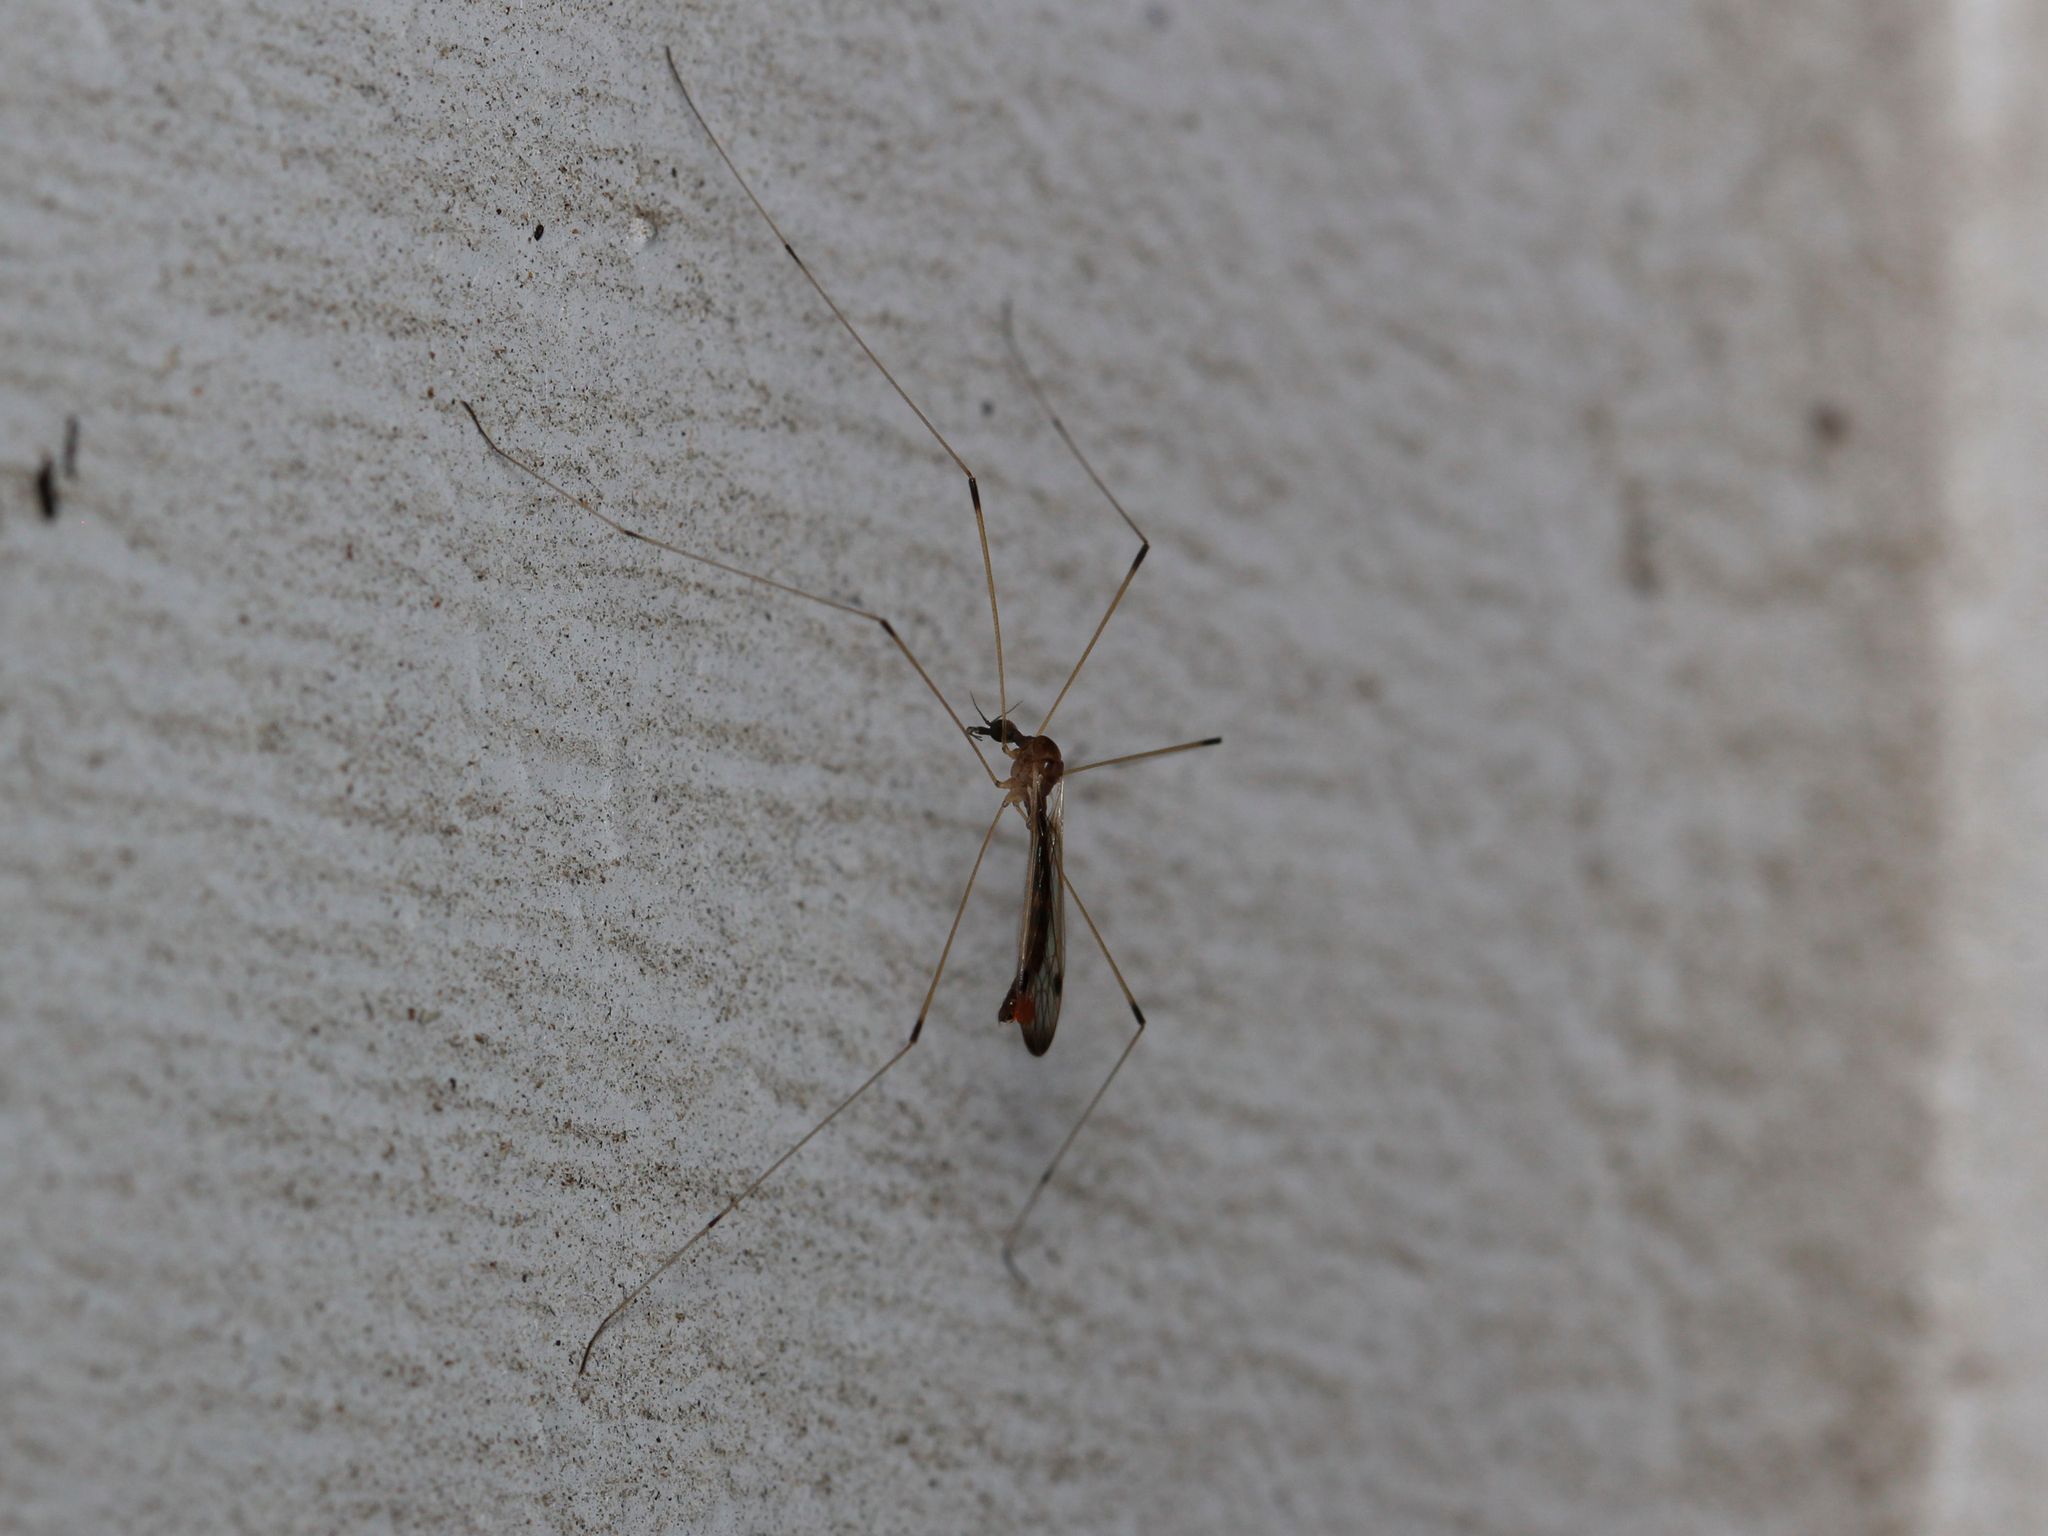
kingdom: Animalia
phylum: Arthropoda
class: Insecta
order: Diptera
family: Limoniidae
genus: Helius
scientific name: Helius flavipes
